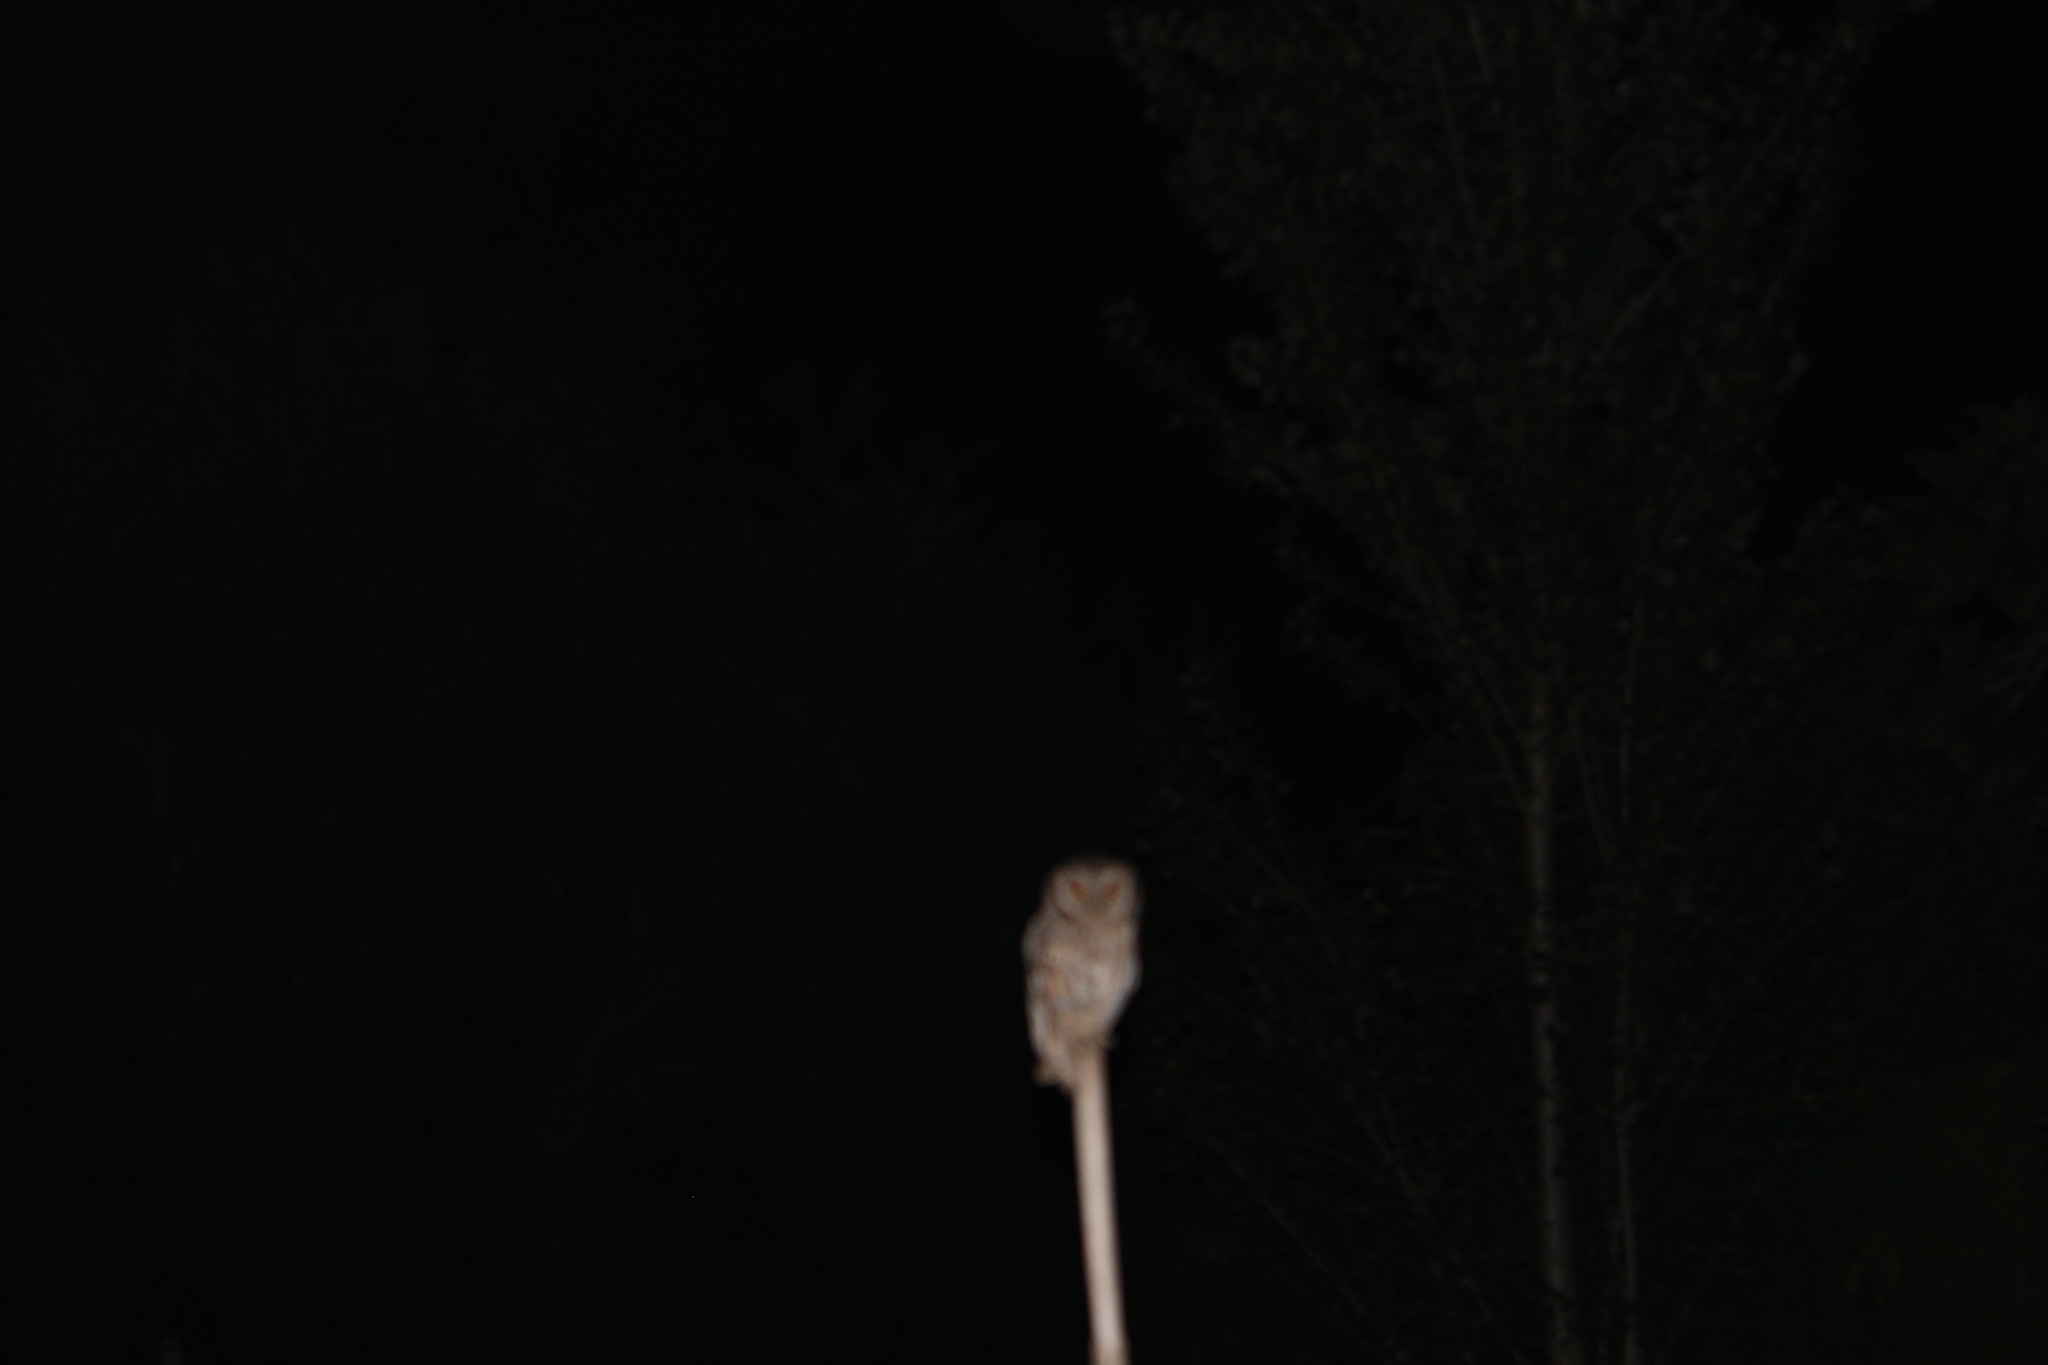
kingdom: Animalia
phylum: Chordata
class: Aves
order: Strigiformes
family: Strigidae
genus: Megascops
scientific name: Megascops choliba
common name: Tropical screech-owl
